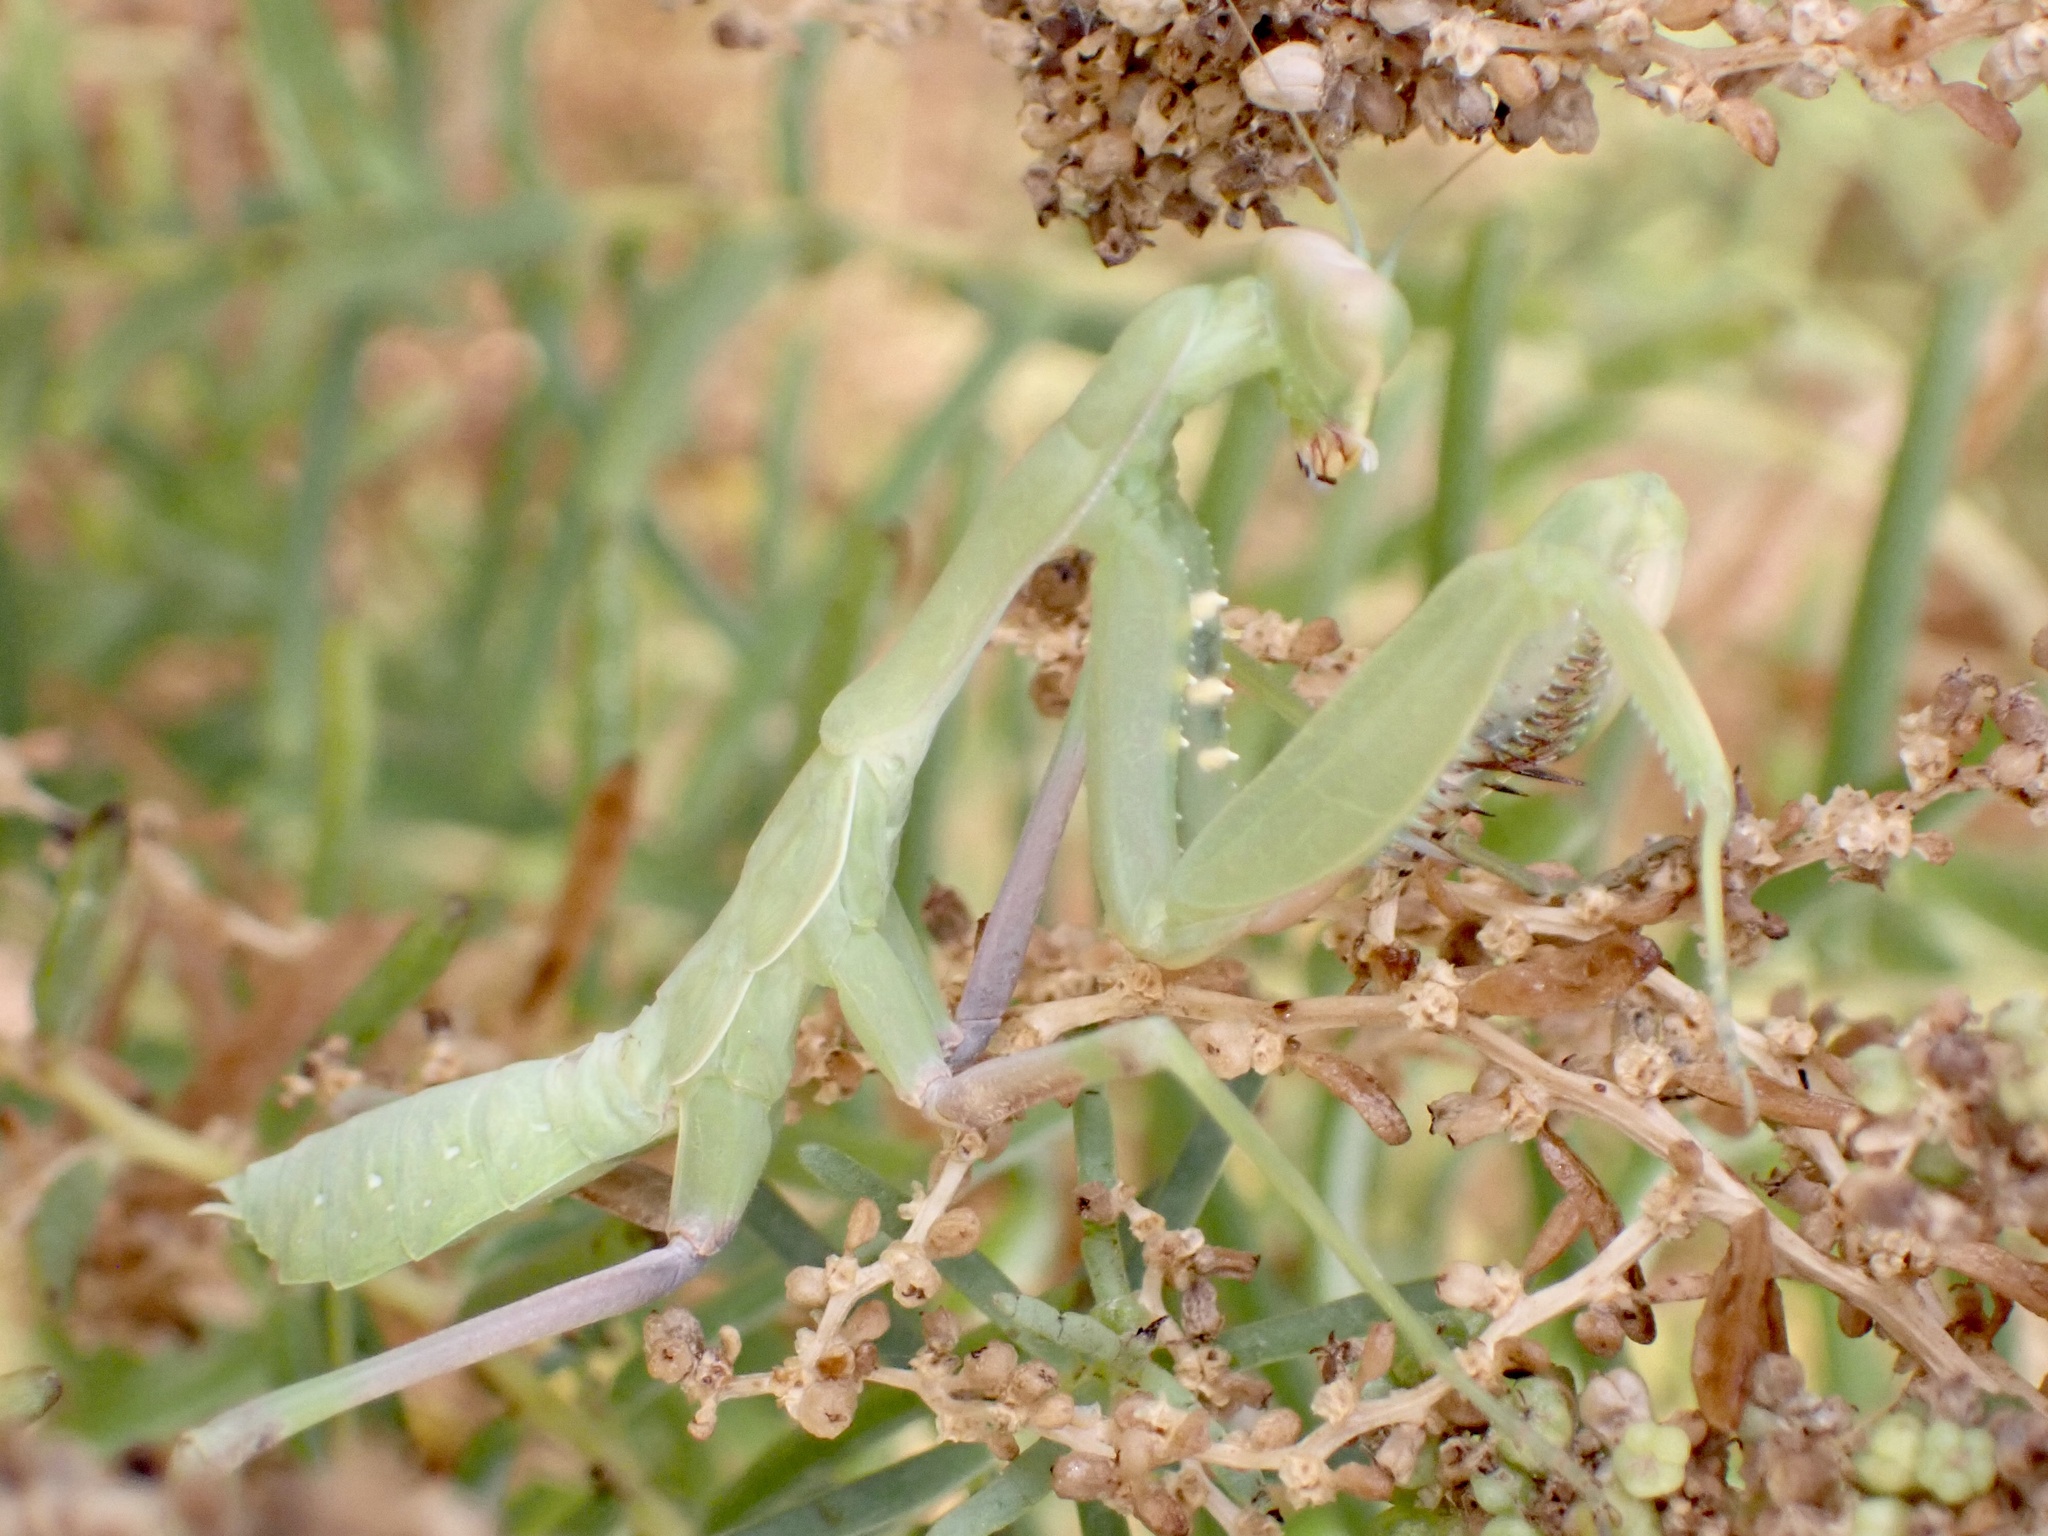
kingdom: Animalia
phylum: Arthropoda
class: Insecta
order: Mantodea
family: Mantidae
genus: Sphodromantis
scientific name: Sphodromantis viridis
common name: Giant african mantis
